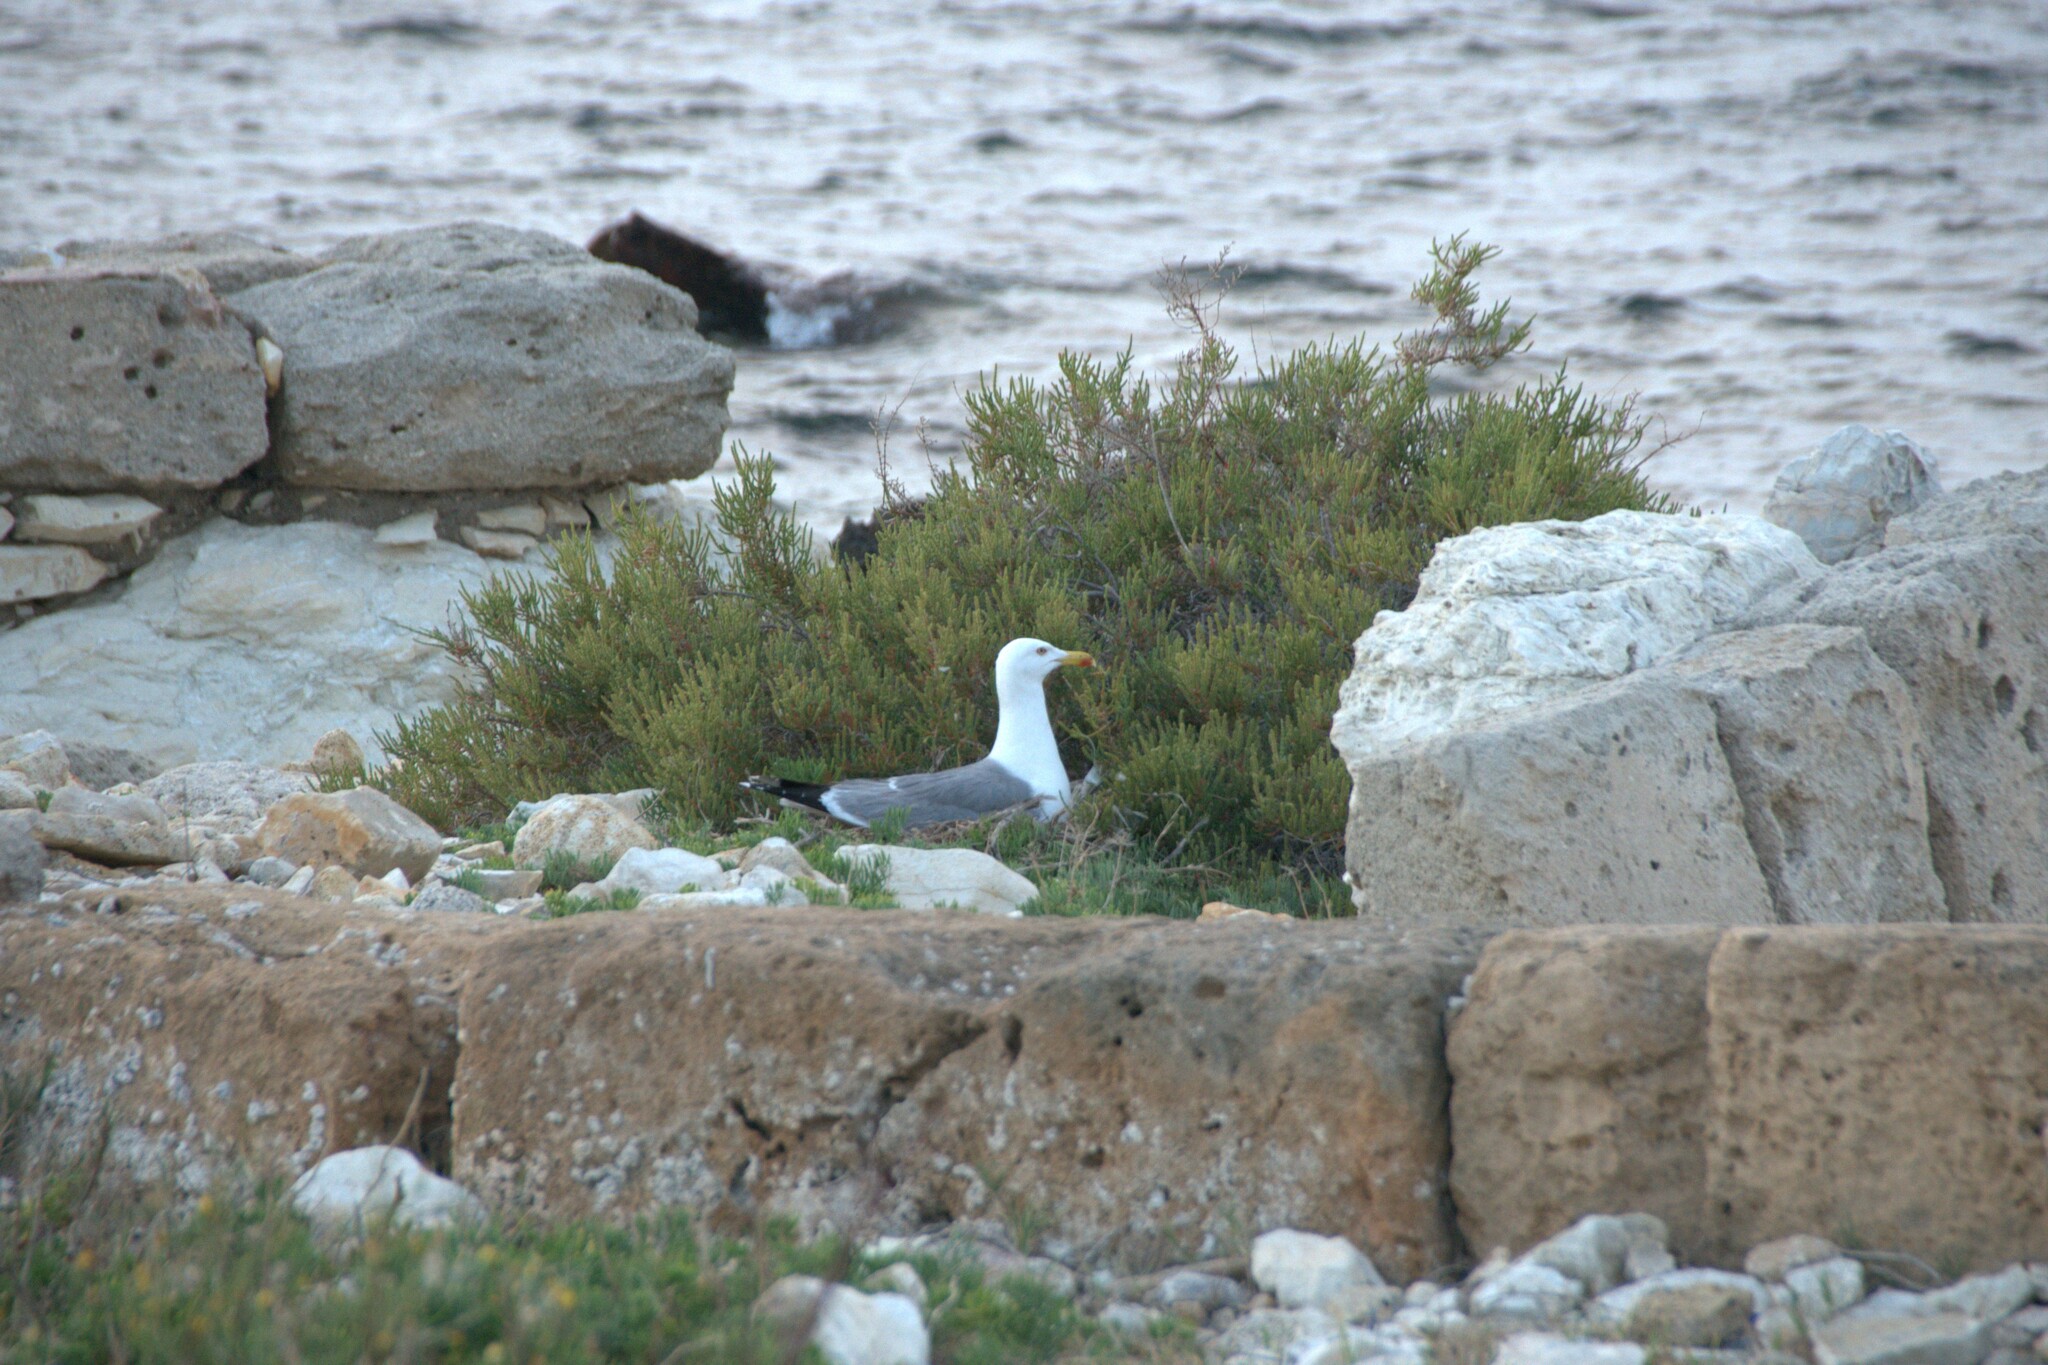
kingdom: Animalia
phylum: Chordata
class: Aves
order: Charadriiformes
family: Laridae
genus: Larus
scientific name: Larus michahellis
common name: Yellow-legged gull
